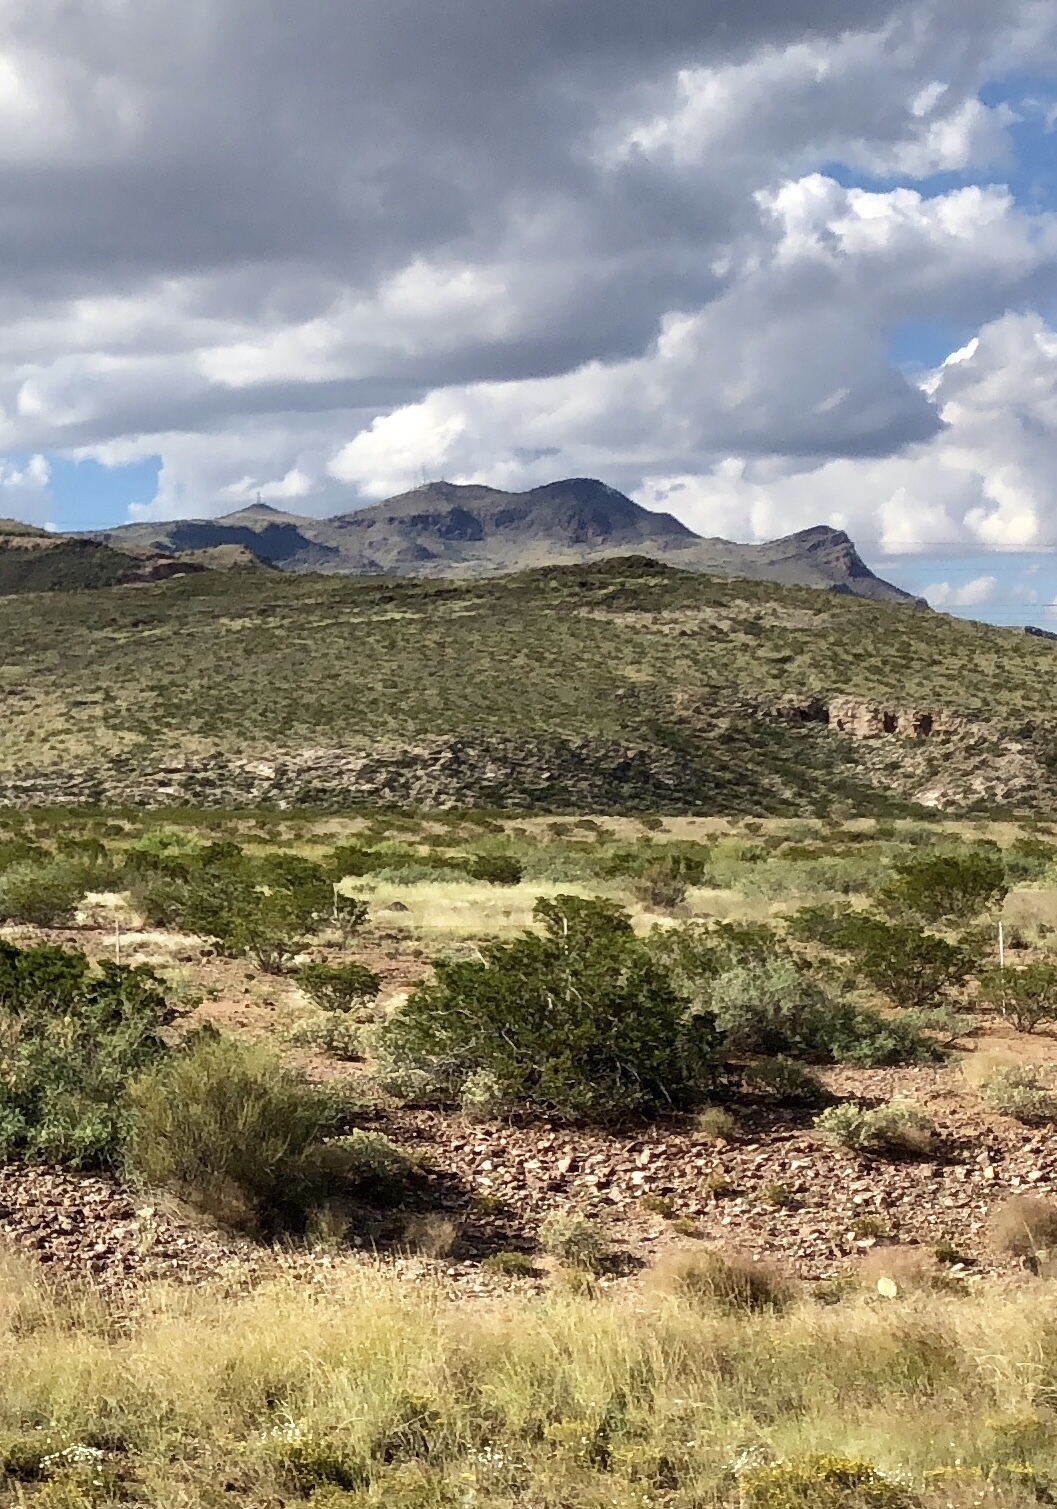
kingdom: Plantae
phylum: Tracheophyta
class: Magnoliopsida
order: Zygophyllales
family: Zygophyllaceae
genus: Larrea
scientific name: Larrea tridentata
